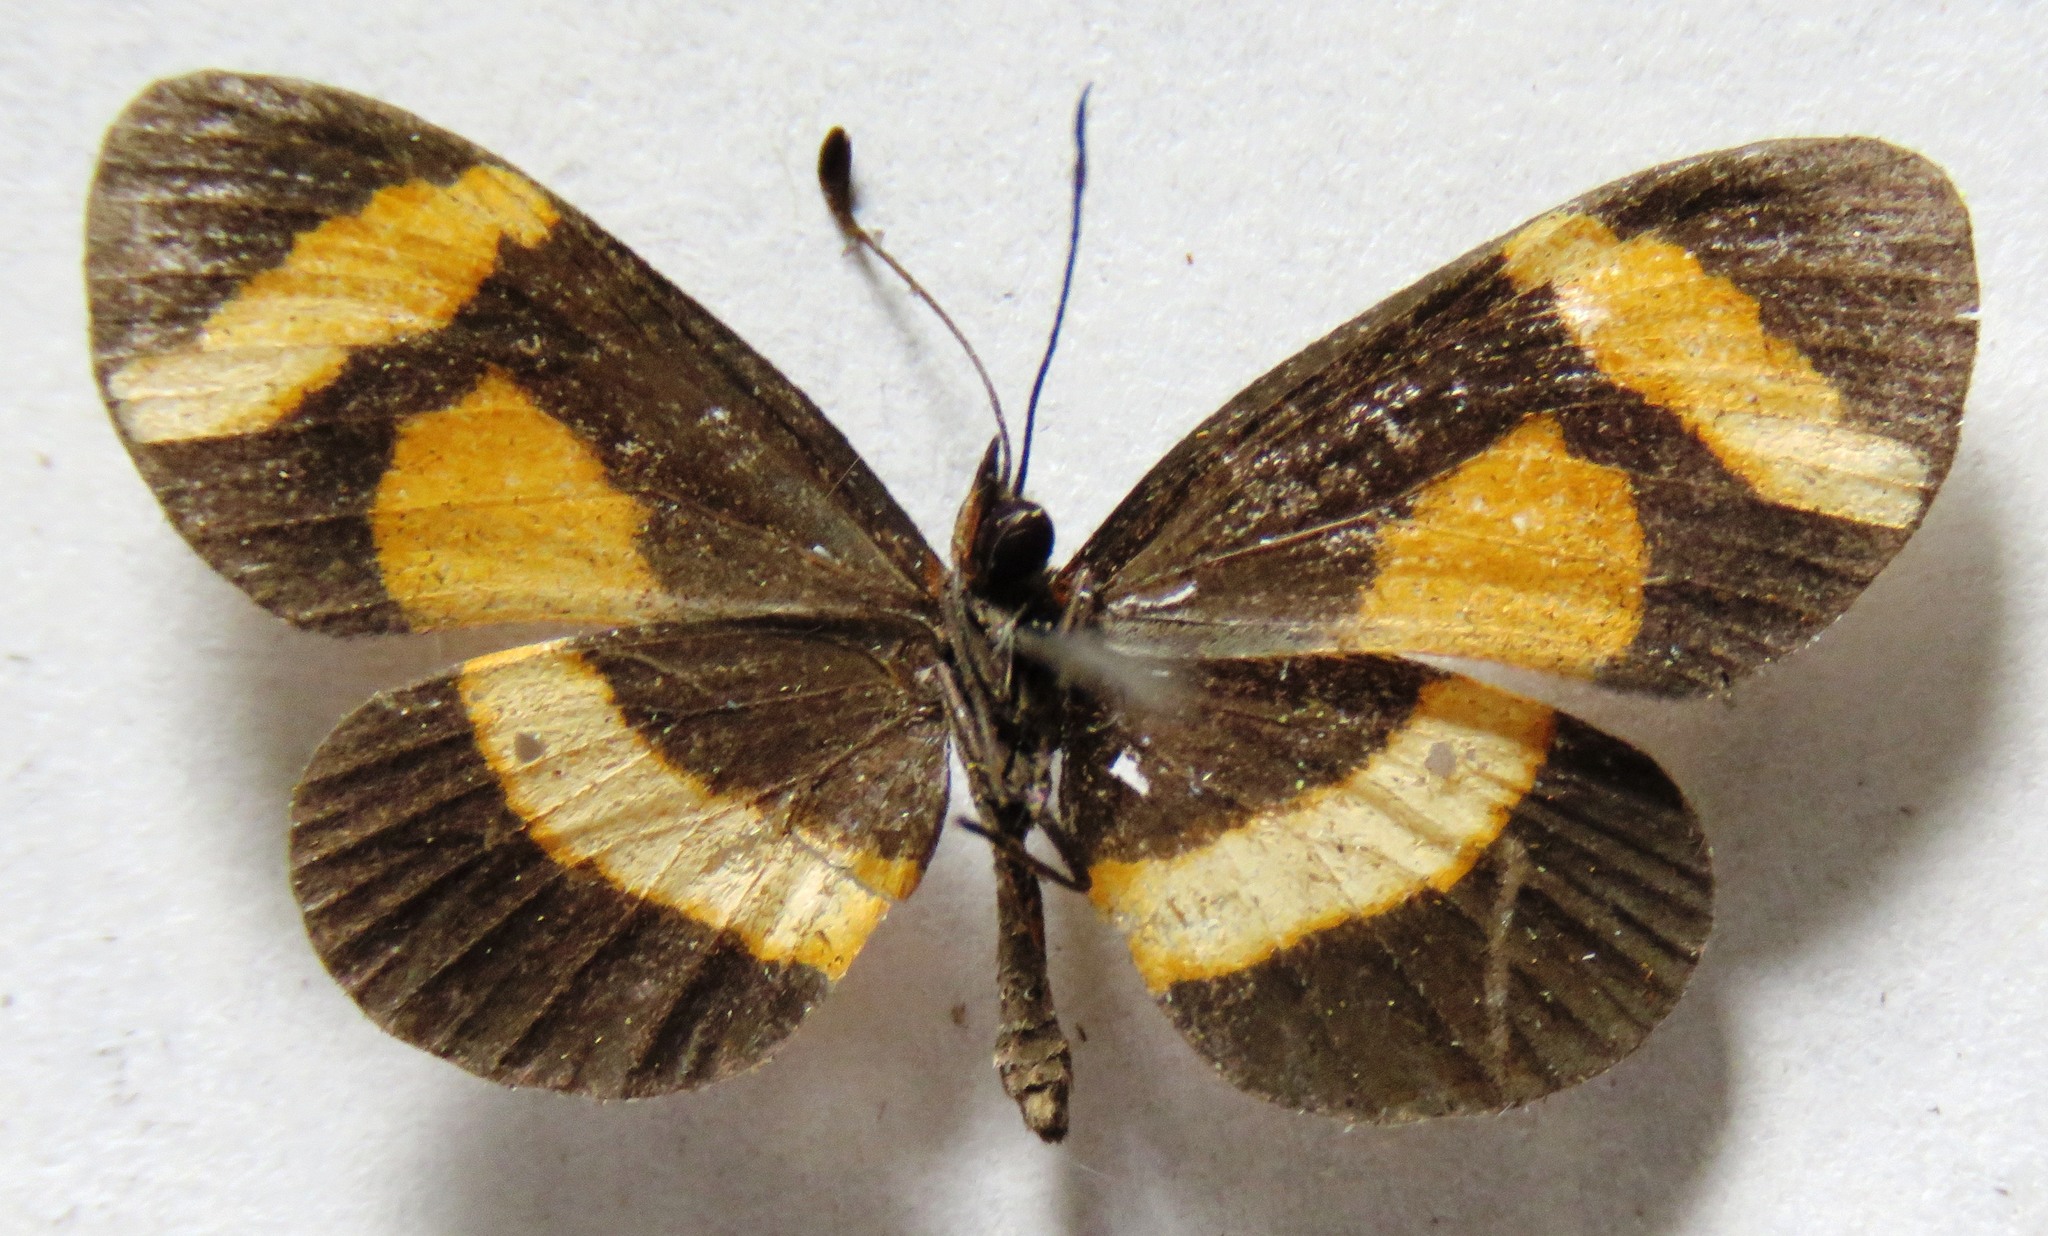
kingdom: Animalia
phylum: Arthropoda
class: Insecta
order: Lepidoptera
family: Nymphalidae
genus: Microtia
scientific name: Microtia elva
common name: Elf
